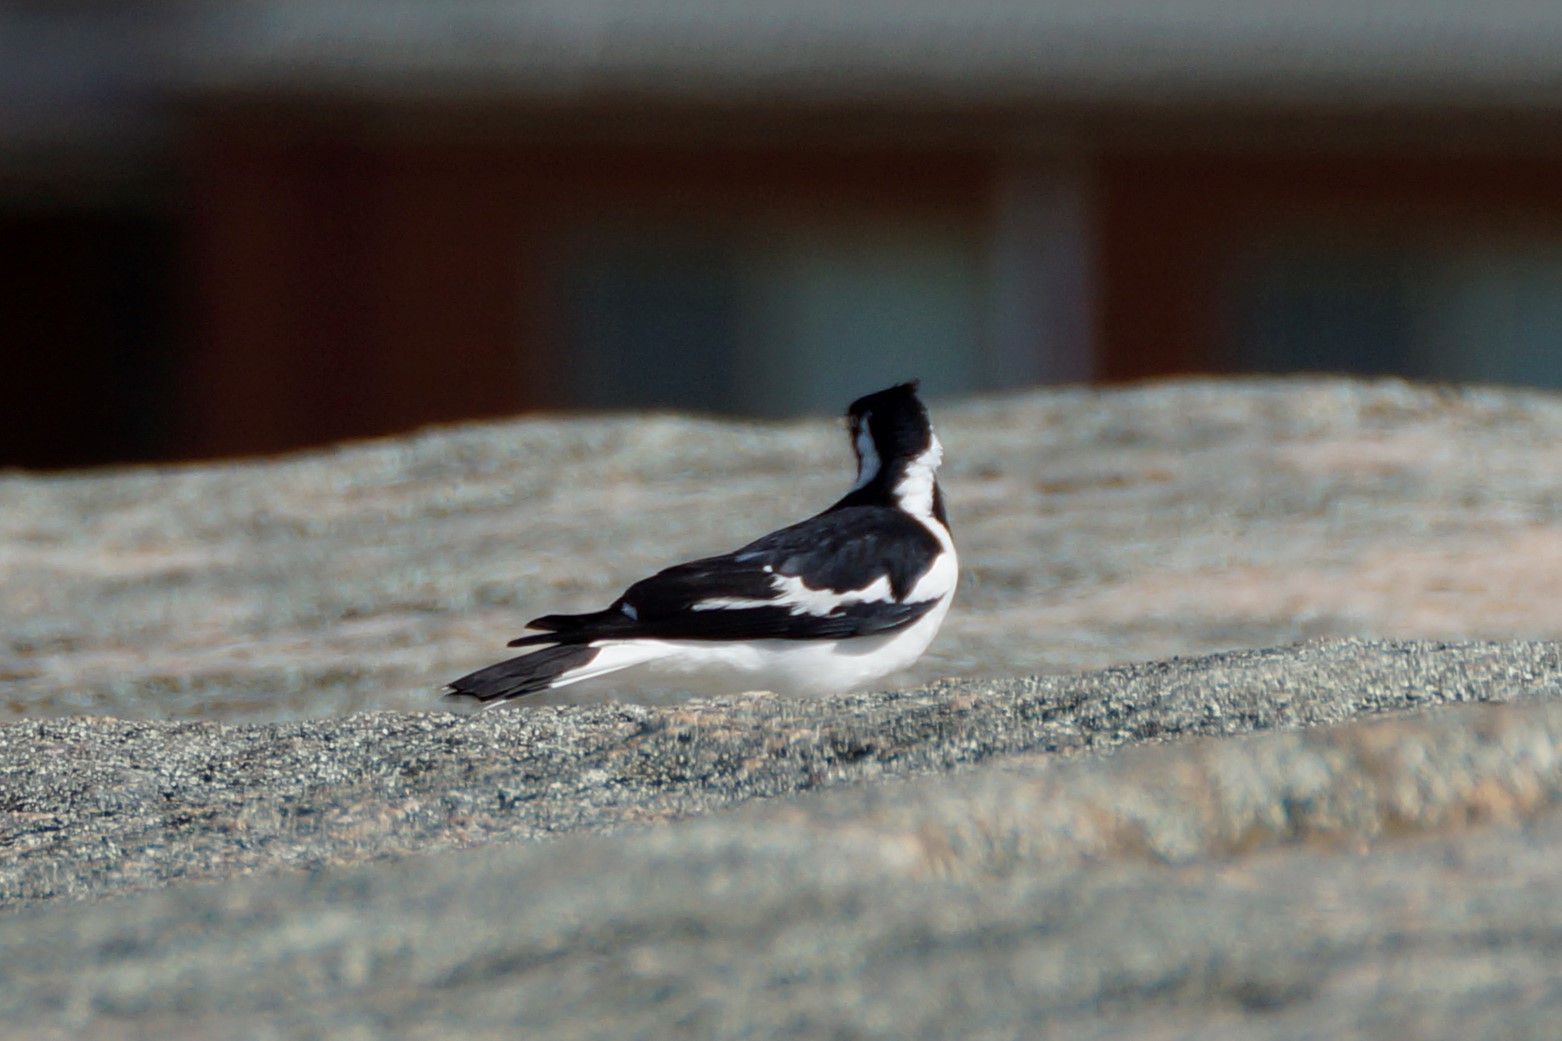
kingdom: Animalia
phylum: Chordata
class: Aves
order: Passeriformes
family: Monarchidae
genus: Grallina
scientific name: Grallina cyanoleuca
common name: Magpie-lark
